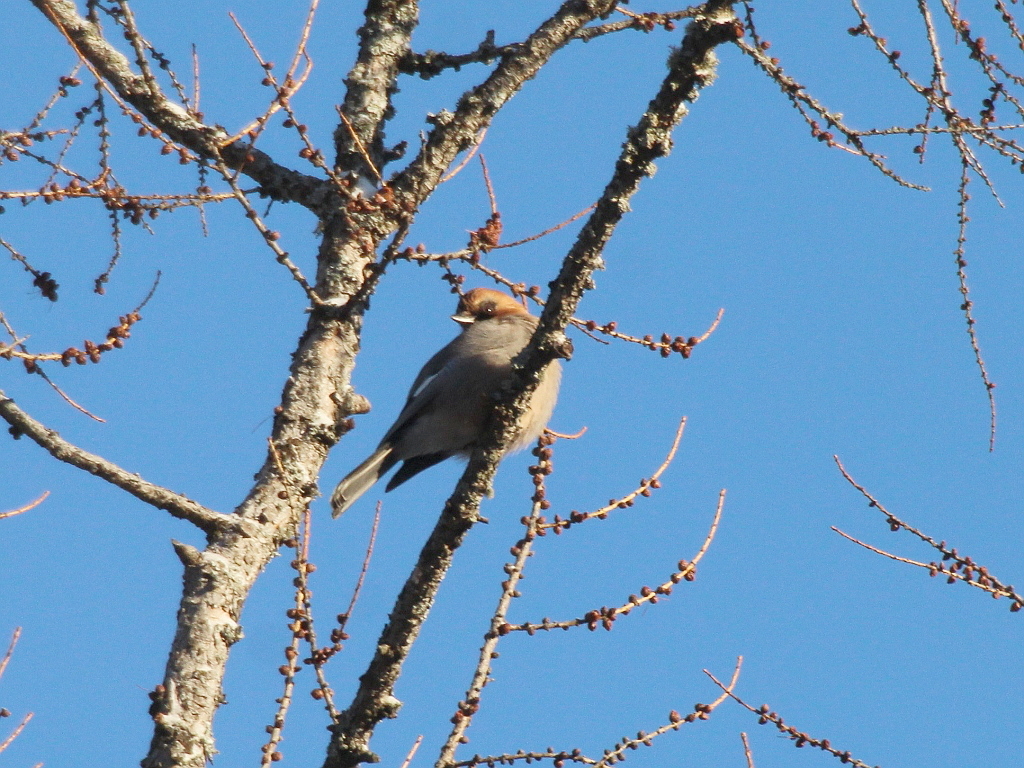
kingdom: Animalia
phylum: Chordata
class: Aves
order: Passeriformes
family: Corvidae
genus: Garrulus
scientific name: Garrulus glandarius
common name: Eurasian jay
